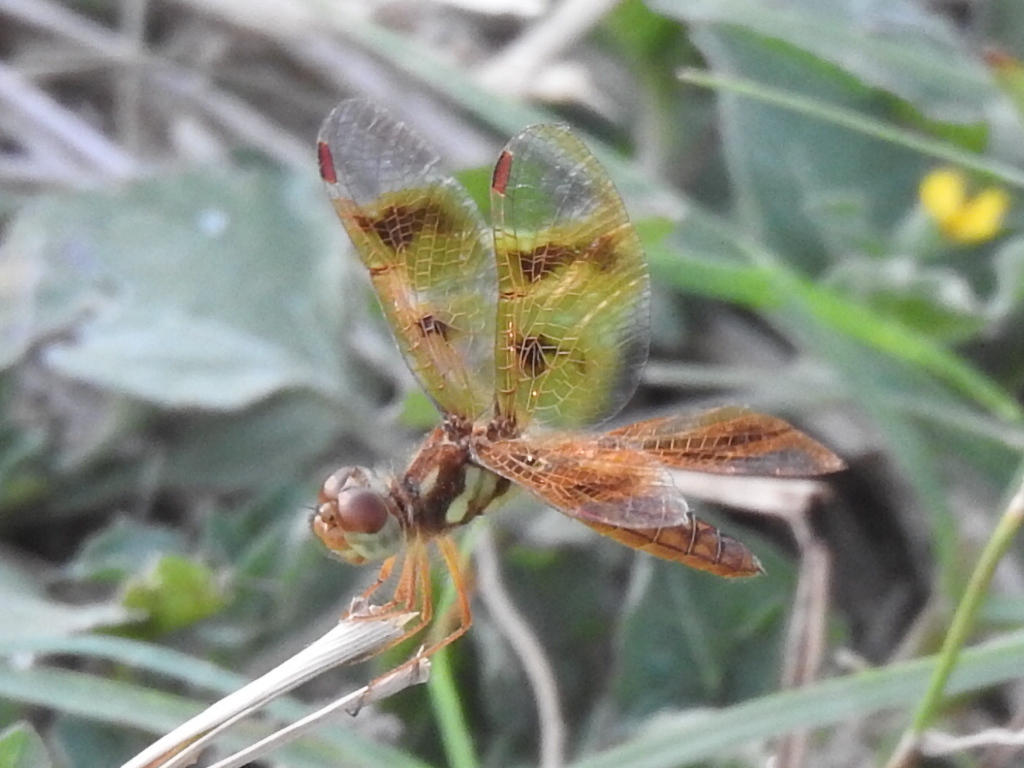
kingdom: Animalia
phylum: Arthropoda
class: Insecta
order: Odonata
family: Libellulidae
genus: Perithemis
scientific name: Perithemis tenera
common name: Eastern amberwing
